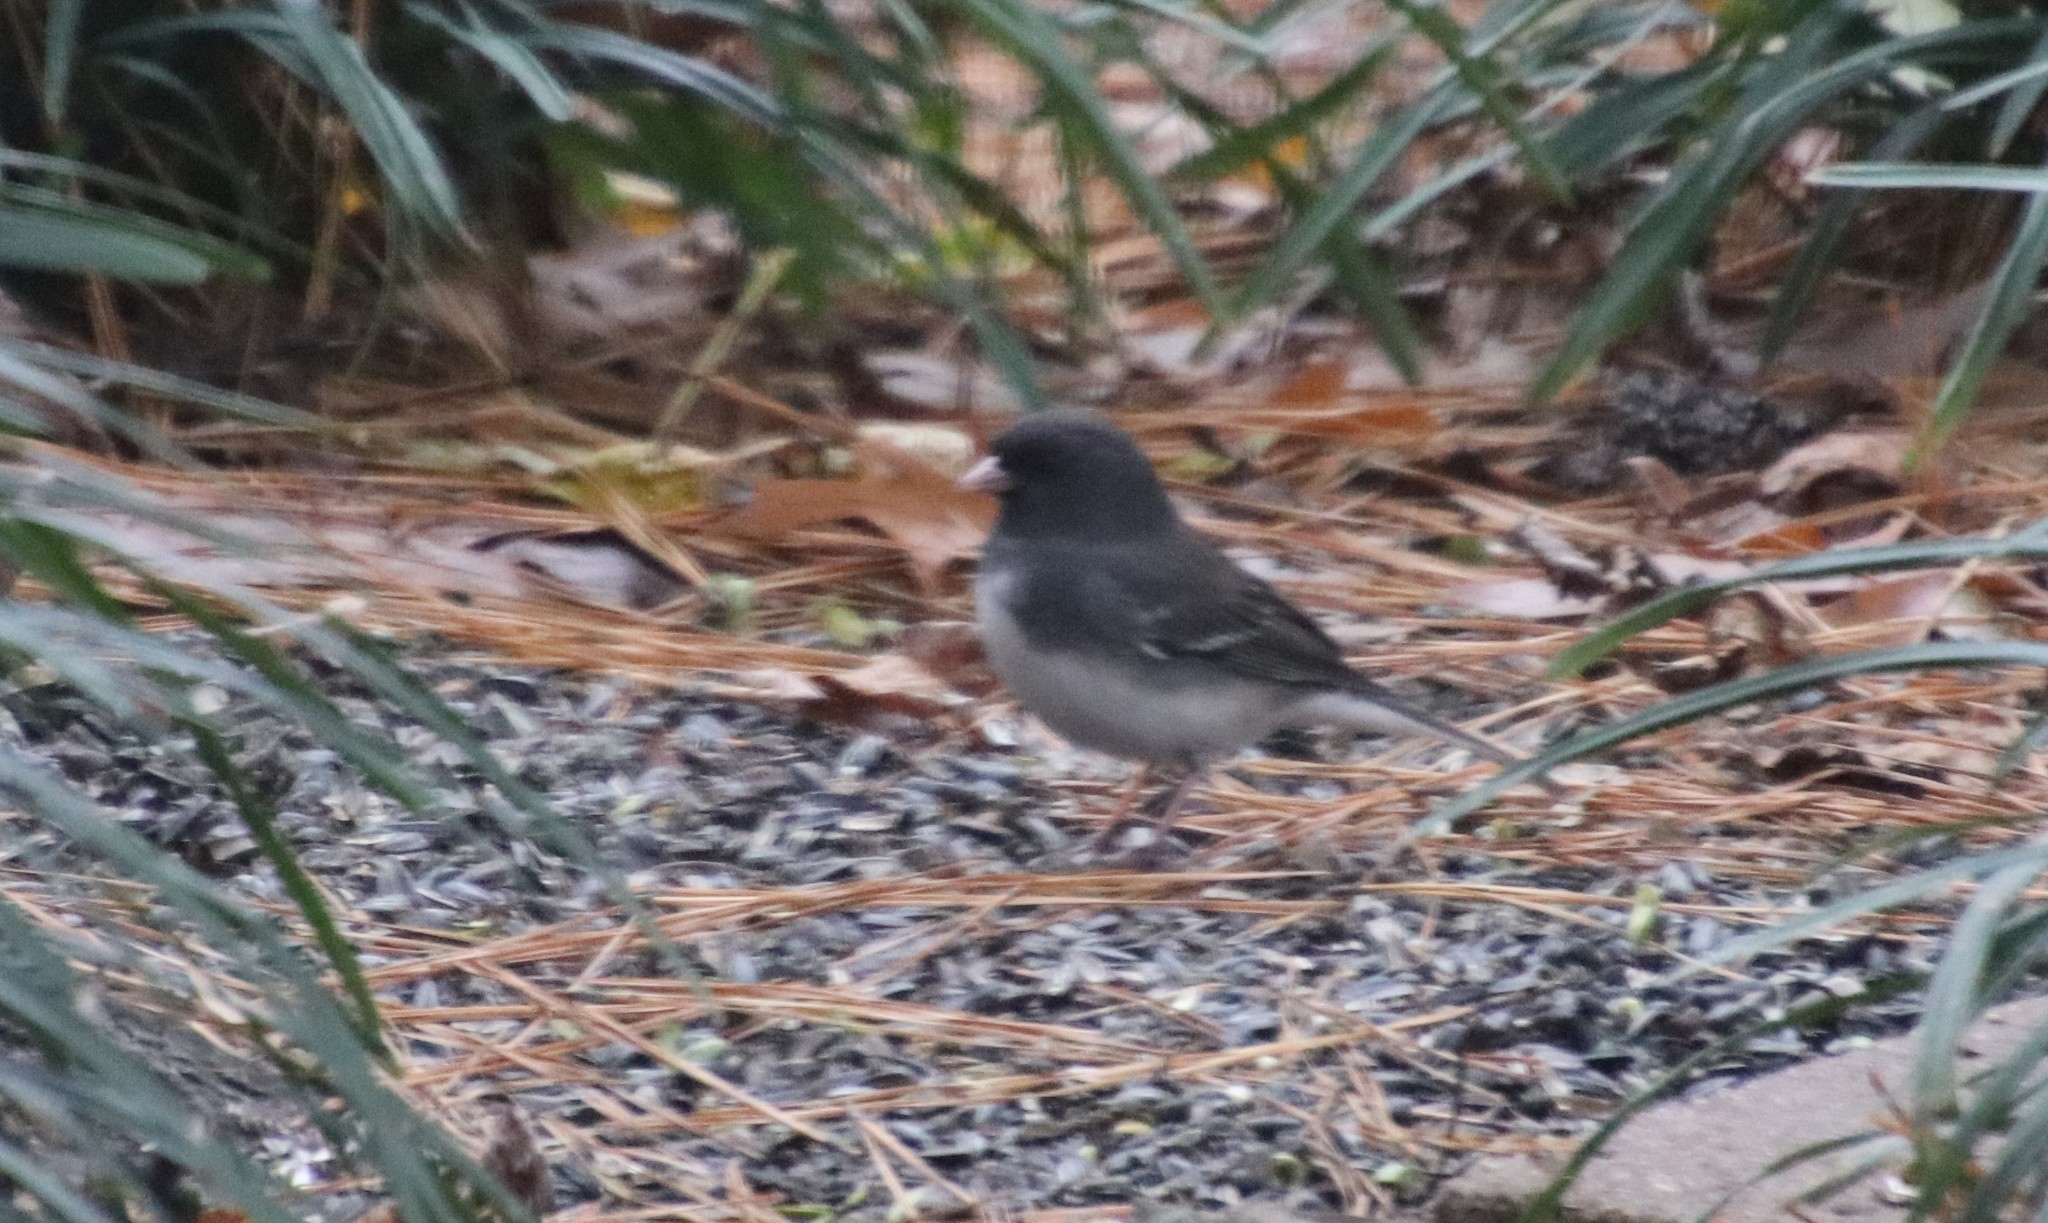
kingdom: Animalia
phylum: Chordata
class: Aves
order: Passeriformes
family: Passerellidae
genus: Junco
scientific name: Junco hyemalis
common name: Dark-eyed junco
